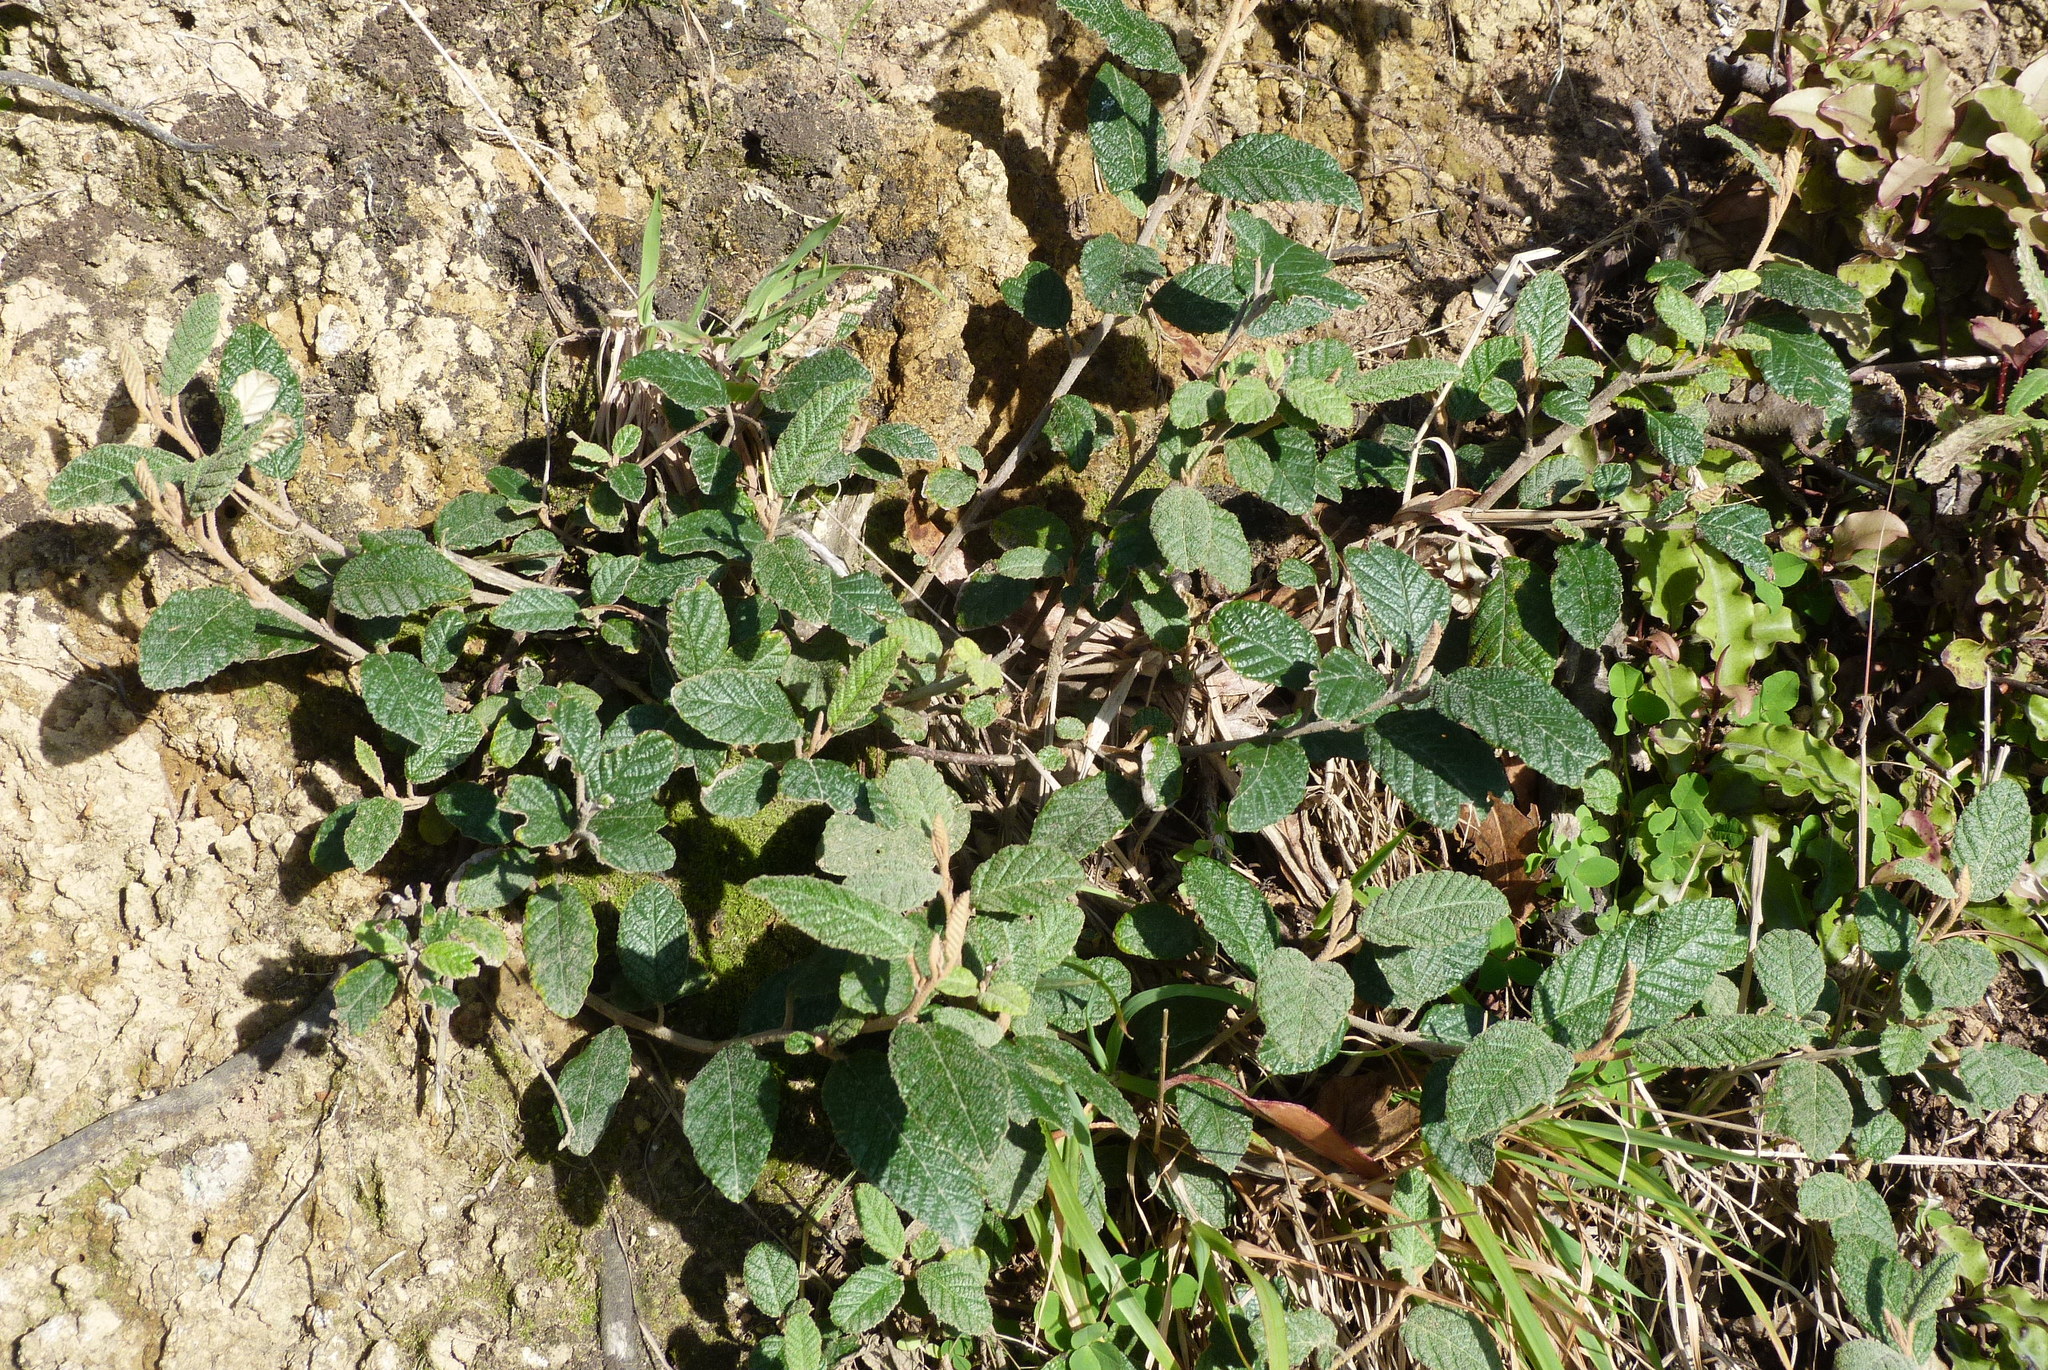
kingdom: Plantae
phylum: Tracheophyta
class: Magnoliopsida
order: Rosales
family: Rhamnaceae
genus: Pomaderris
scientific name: Pomaderris apetala
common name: Hazel pomaderris
